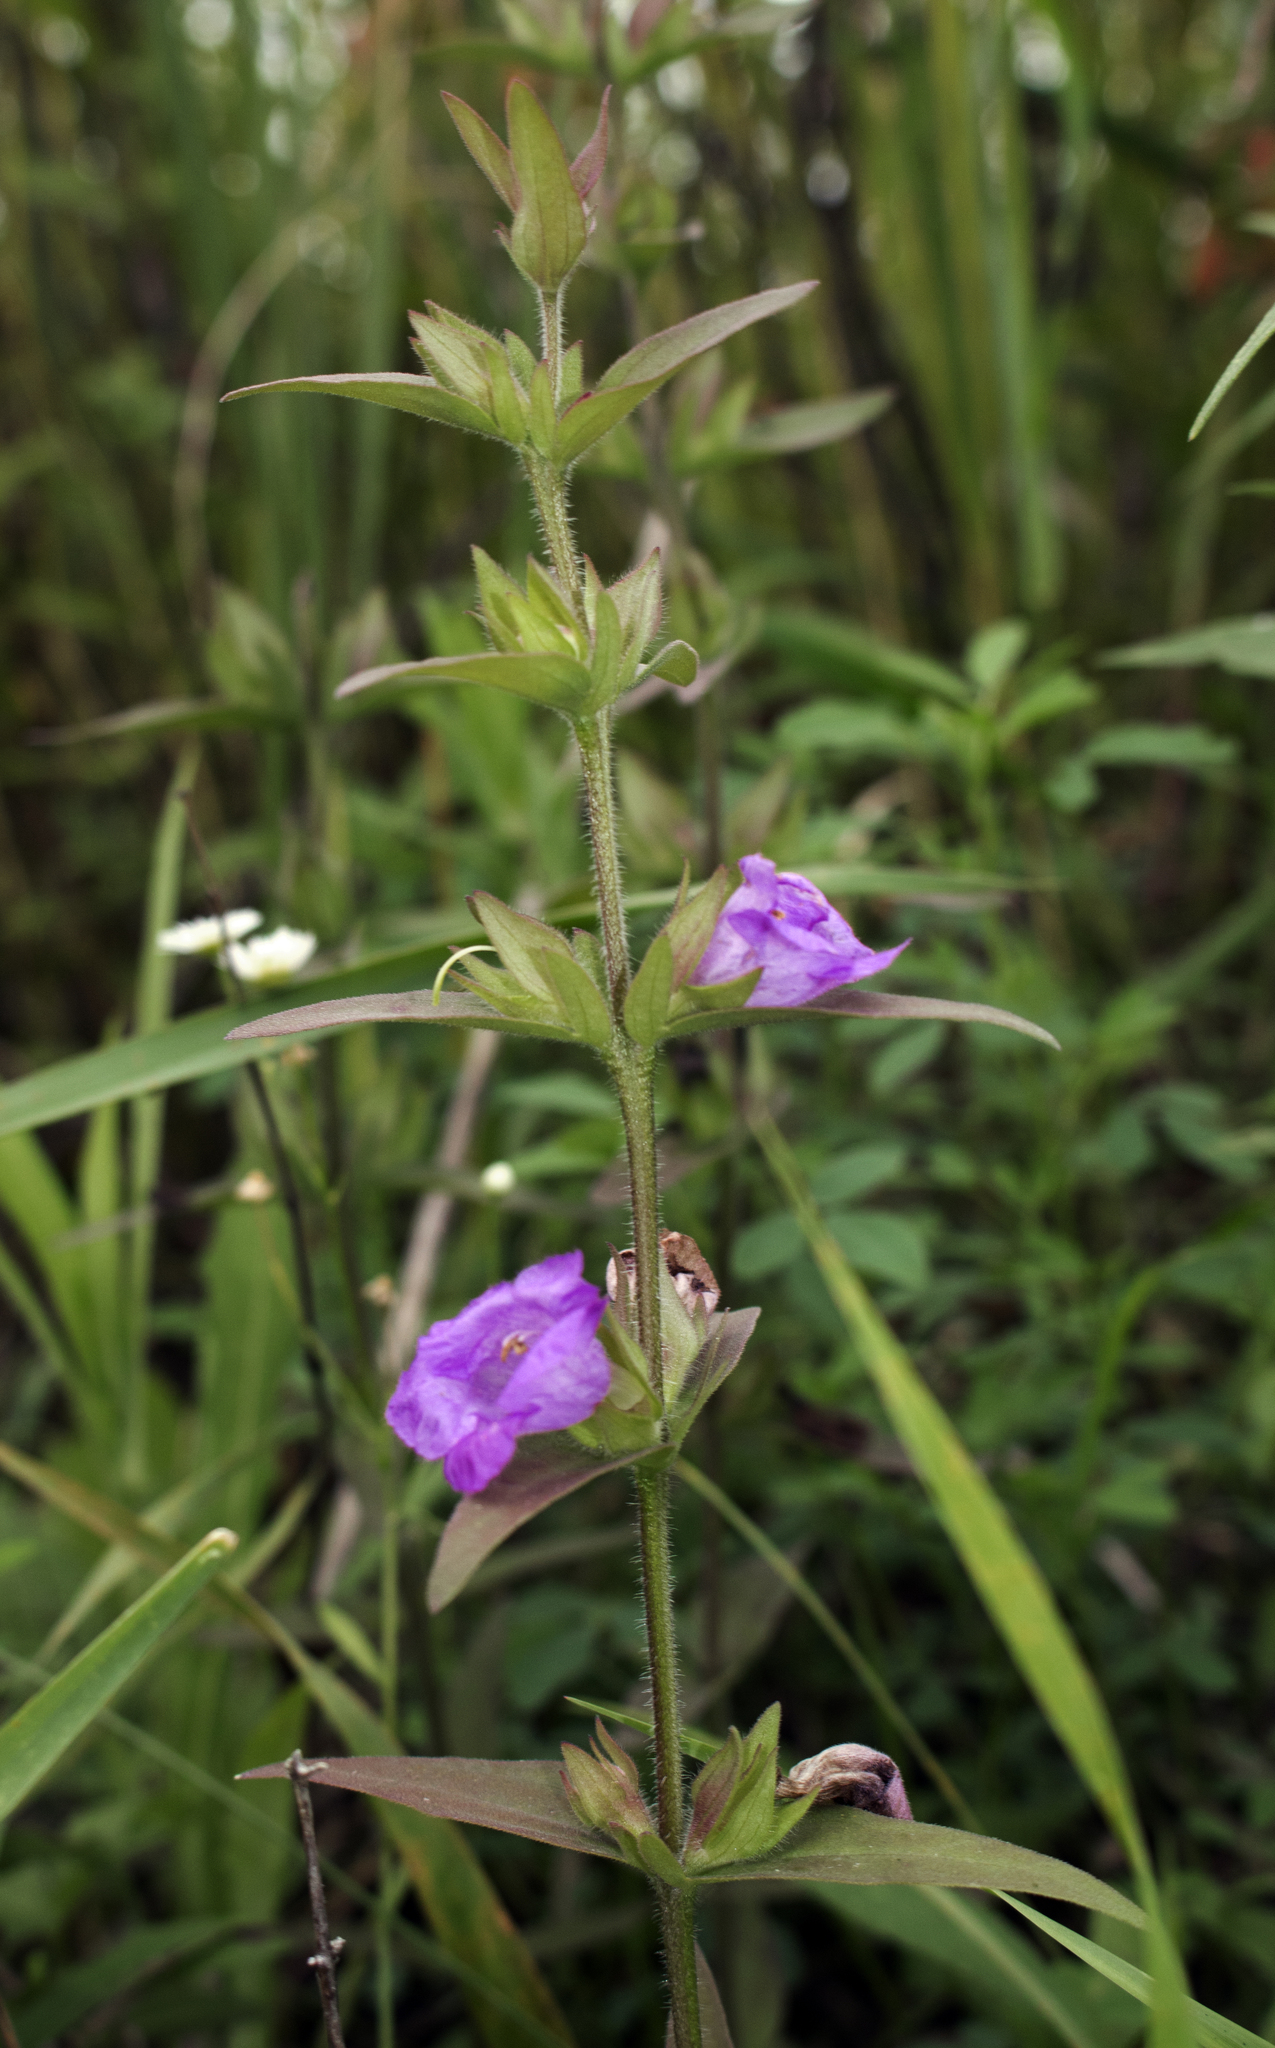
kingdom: Plantae
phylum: Tracheophyta
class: Magnoliopsida
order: Lamiales
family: Orobanchaceae
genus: Agalinis
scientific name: Agalinis auriculata
